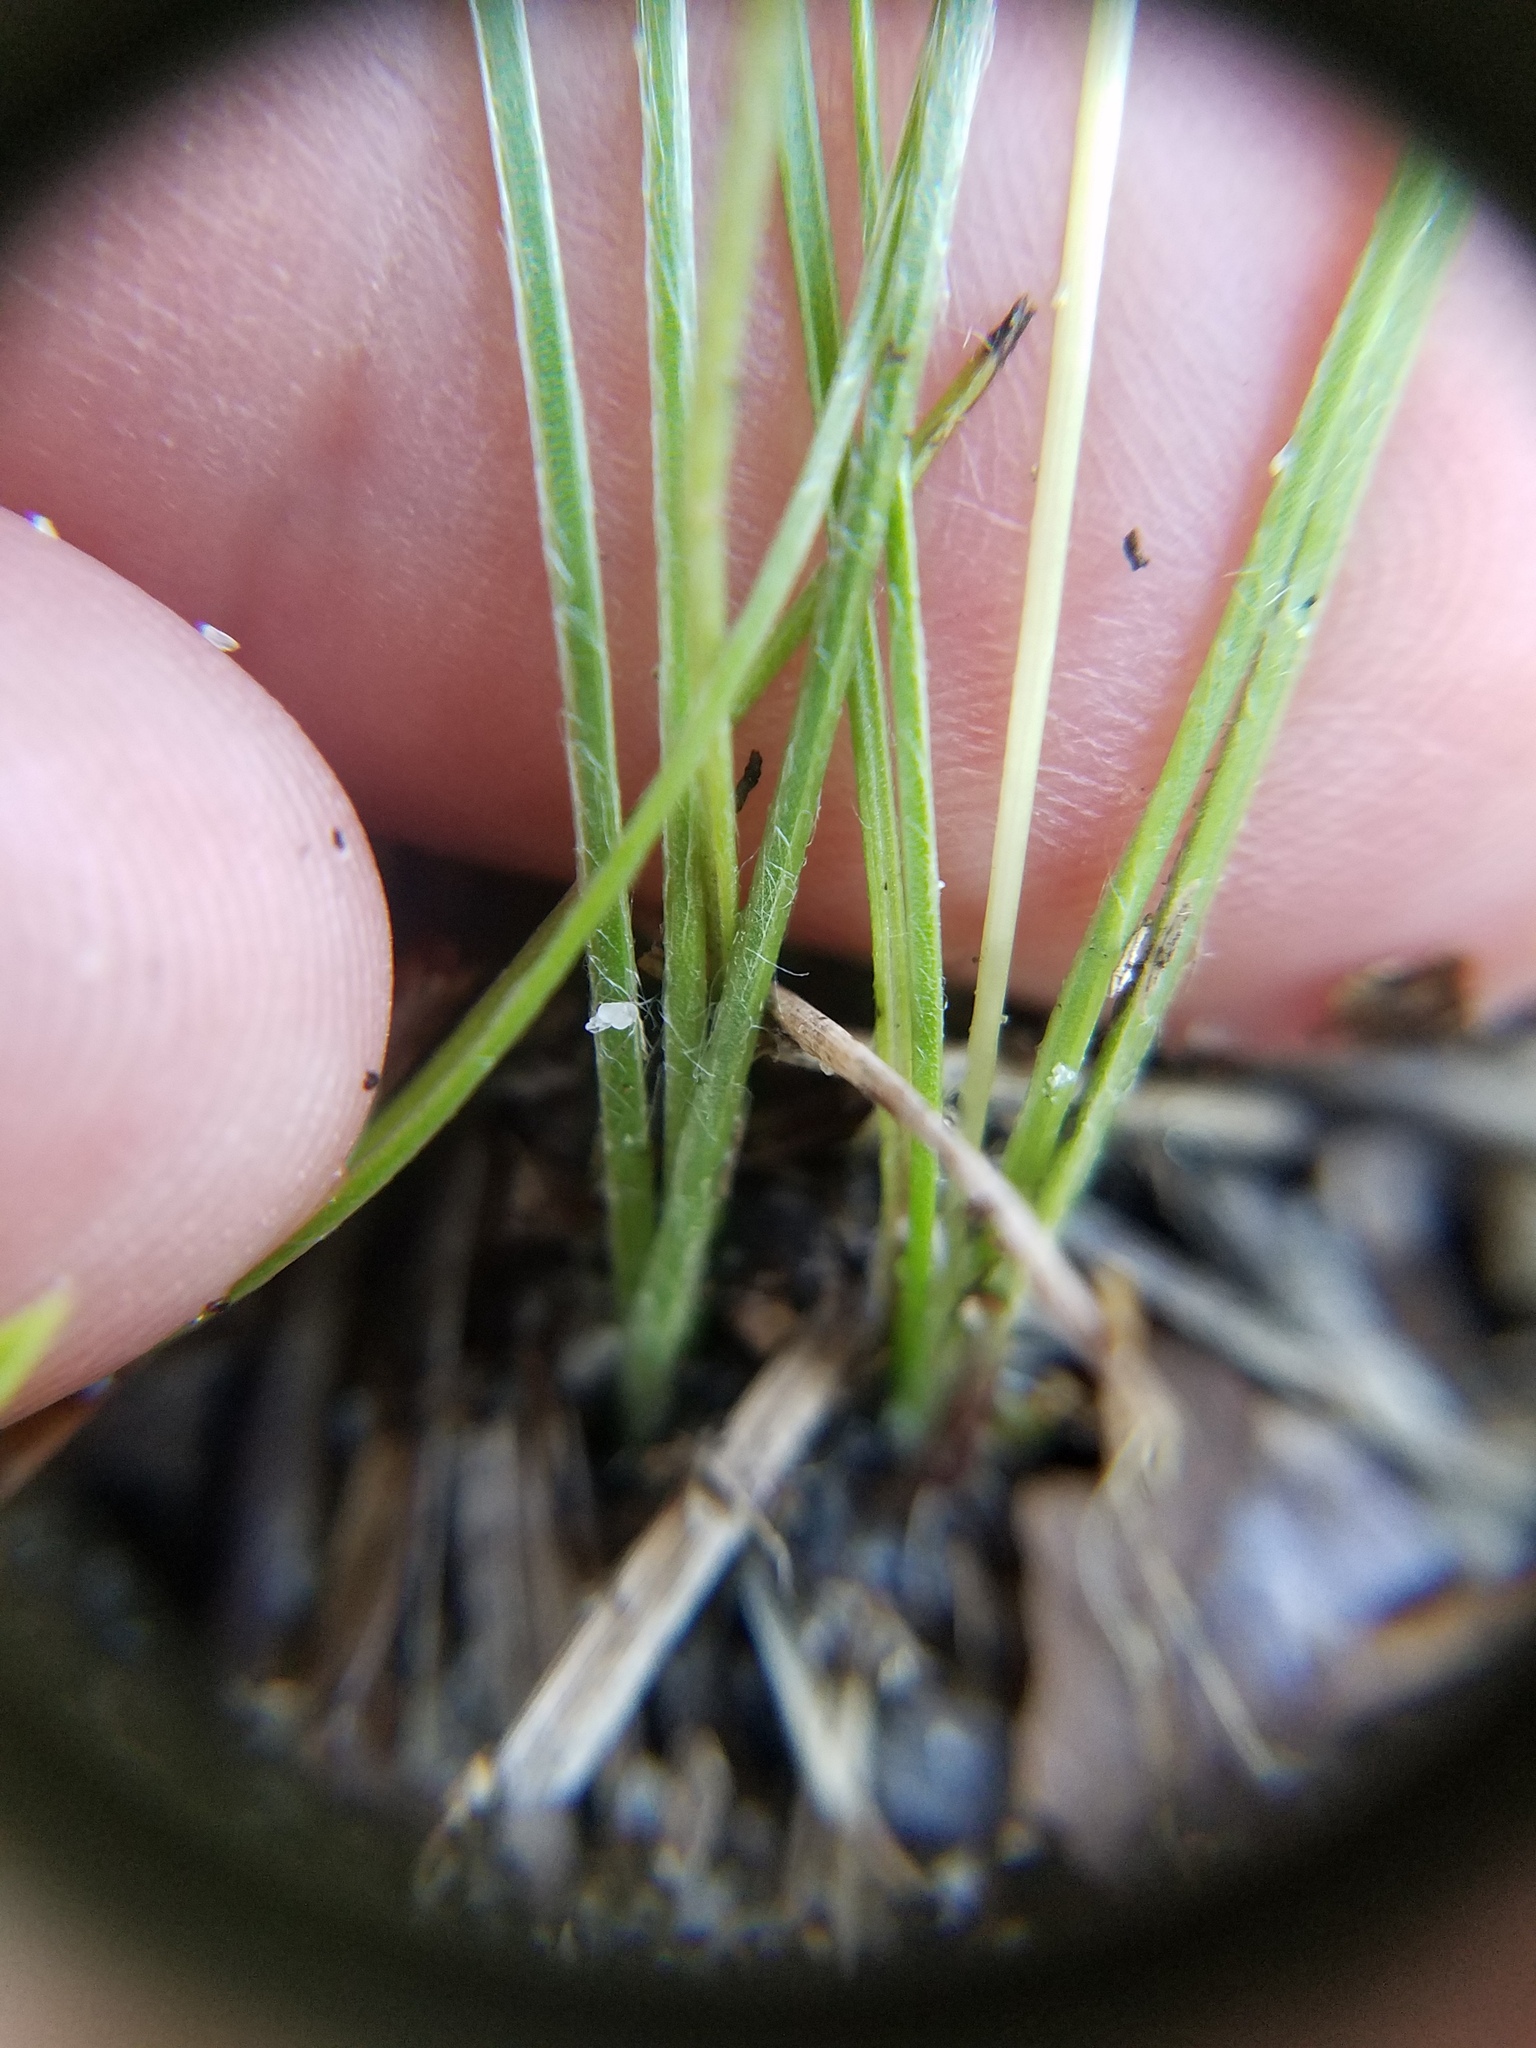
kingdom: Plantae
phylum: Tracheophyta
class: Liliopsida
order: Asparagales
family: Hypoxidaceae
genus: Hypoxis
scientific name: Hypoxis juncea
